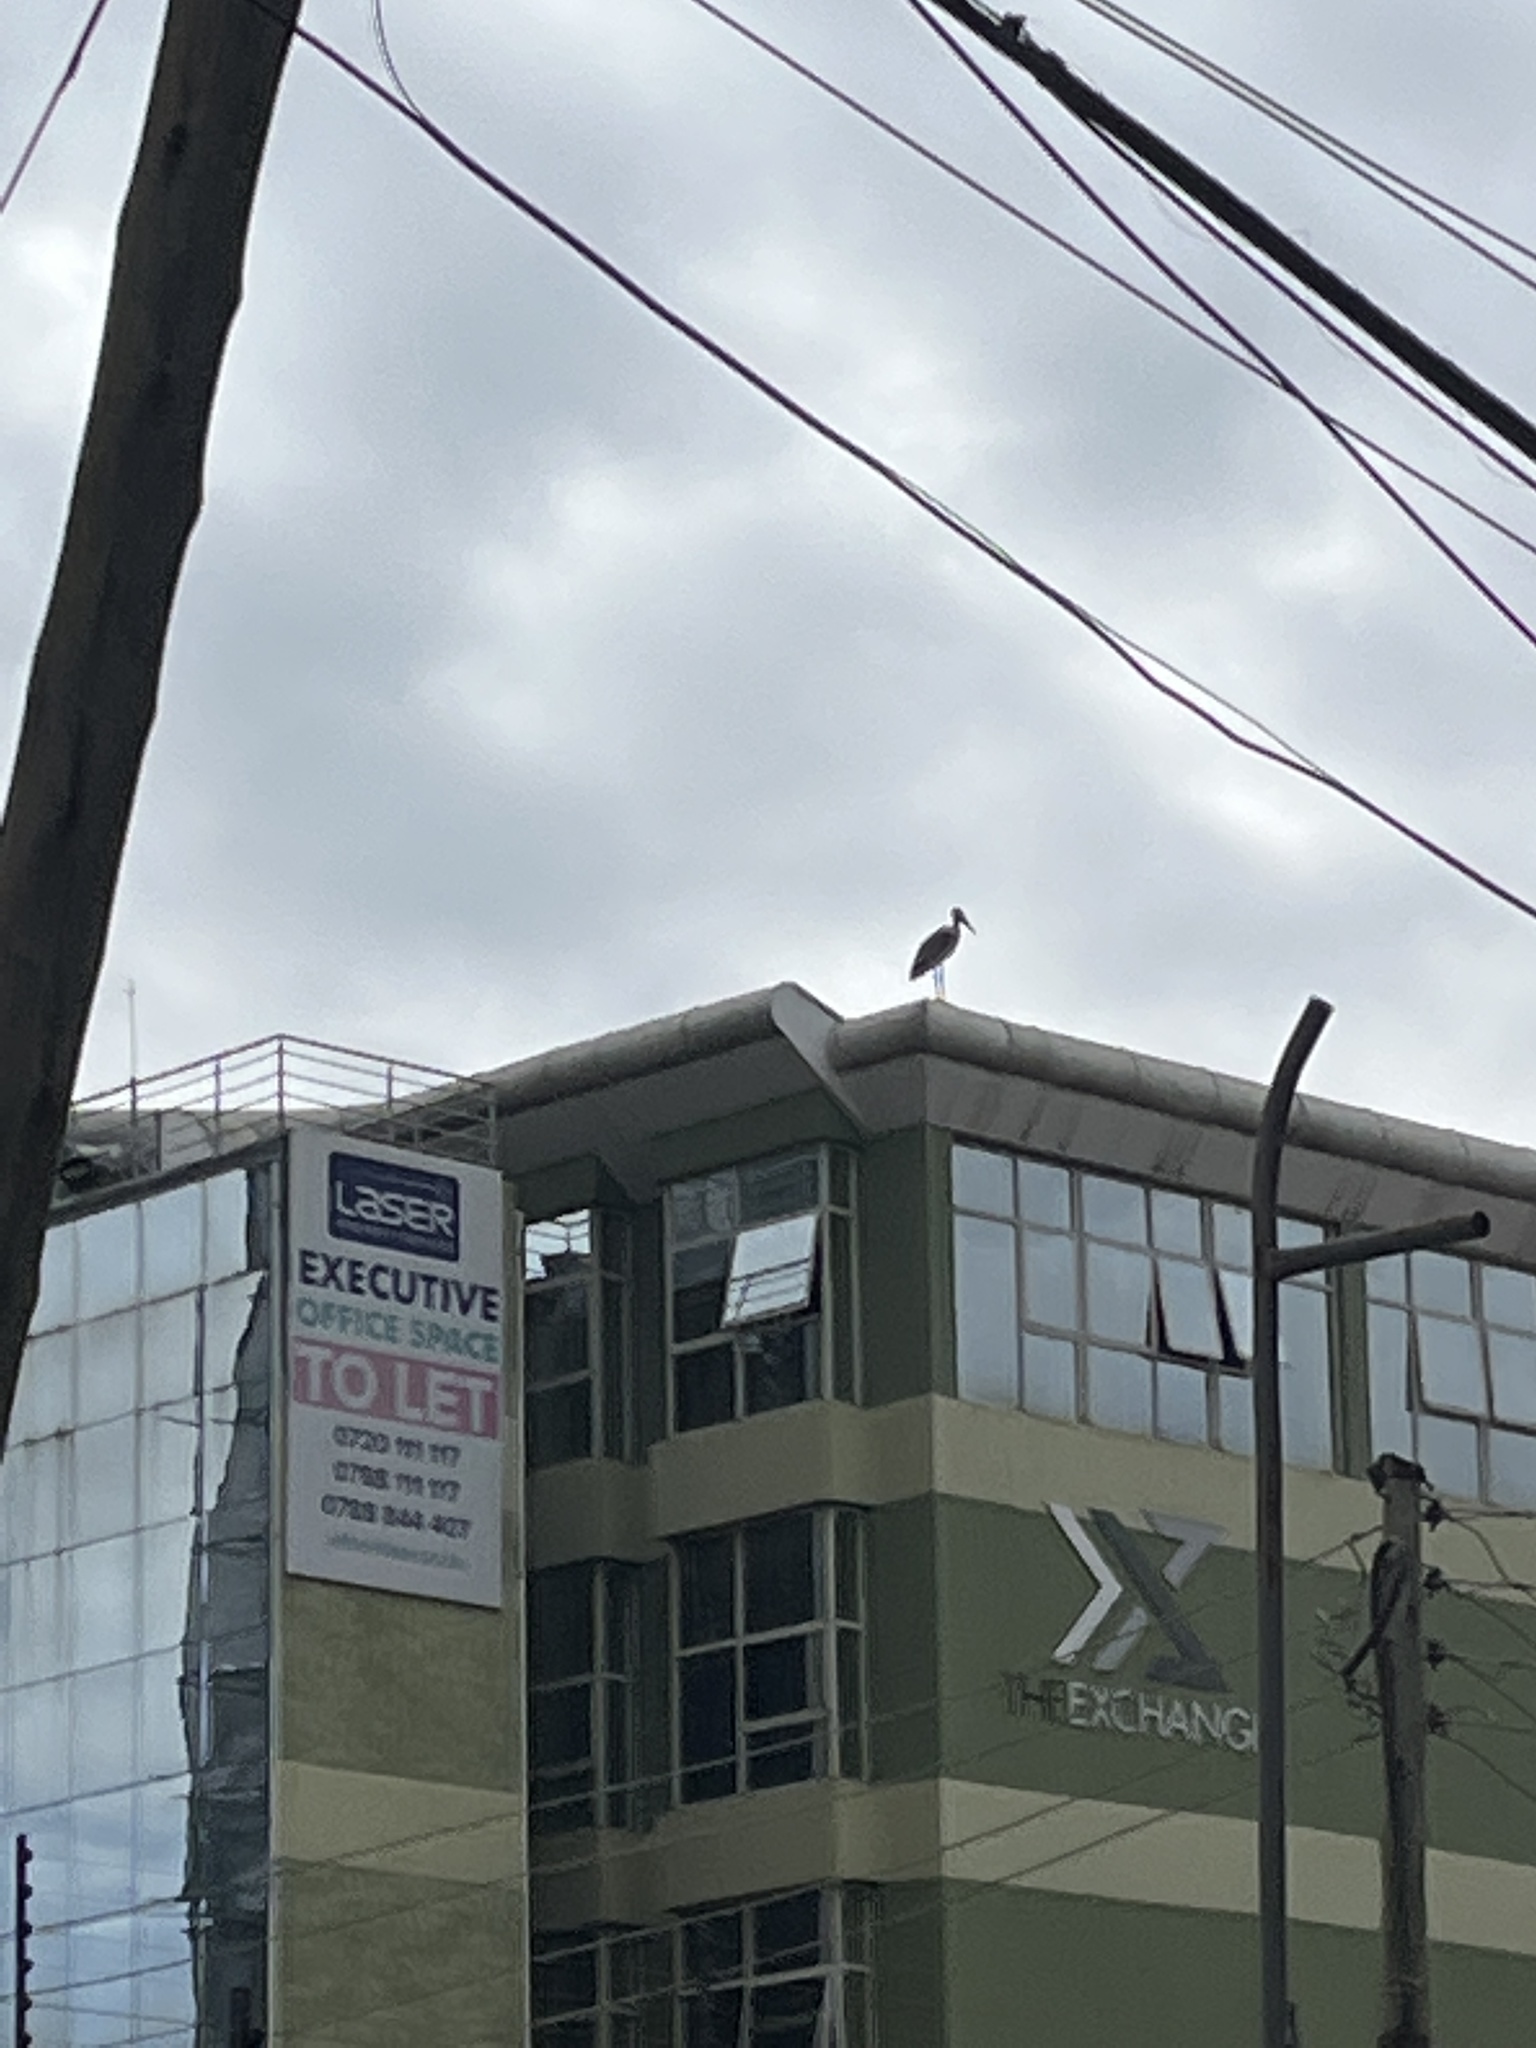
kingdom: Animalia
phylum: Chordata
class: Aves
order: Ciconiiformes
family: Ciconiidae
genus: Leptoptilos
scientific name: Leptoptilos crumenifer
